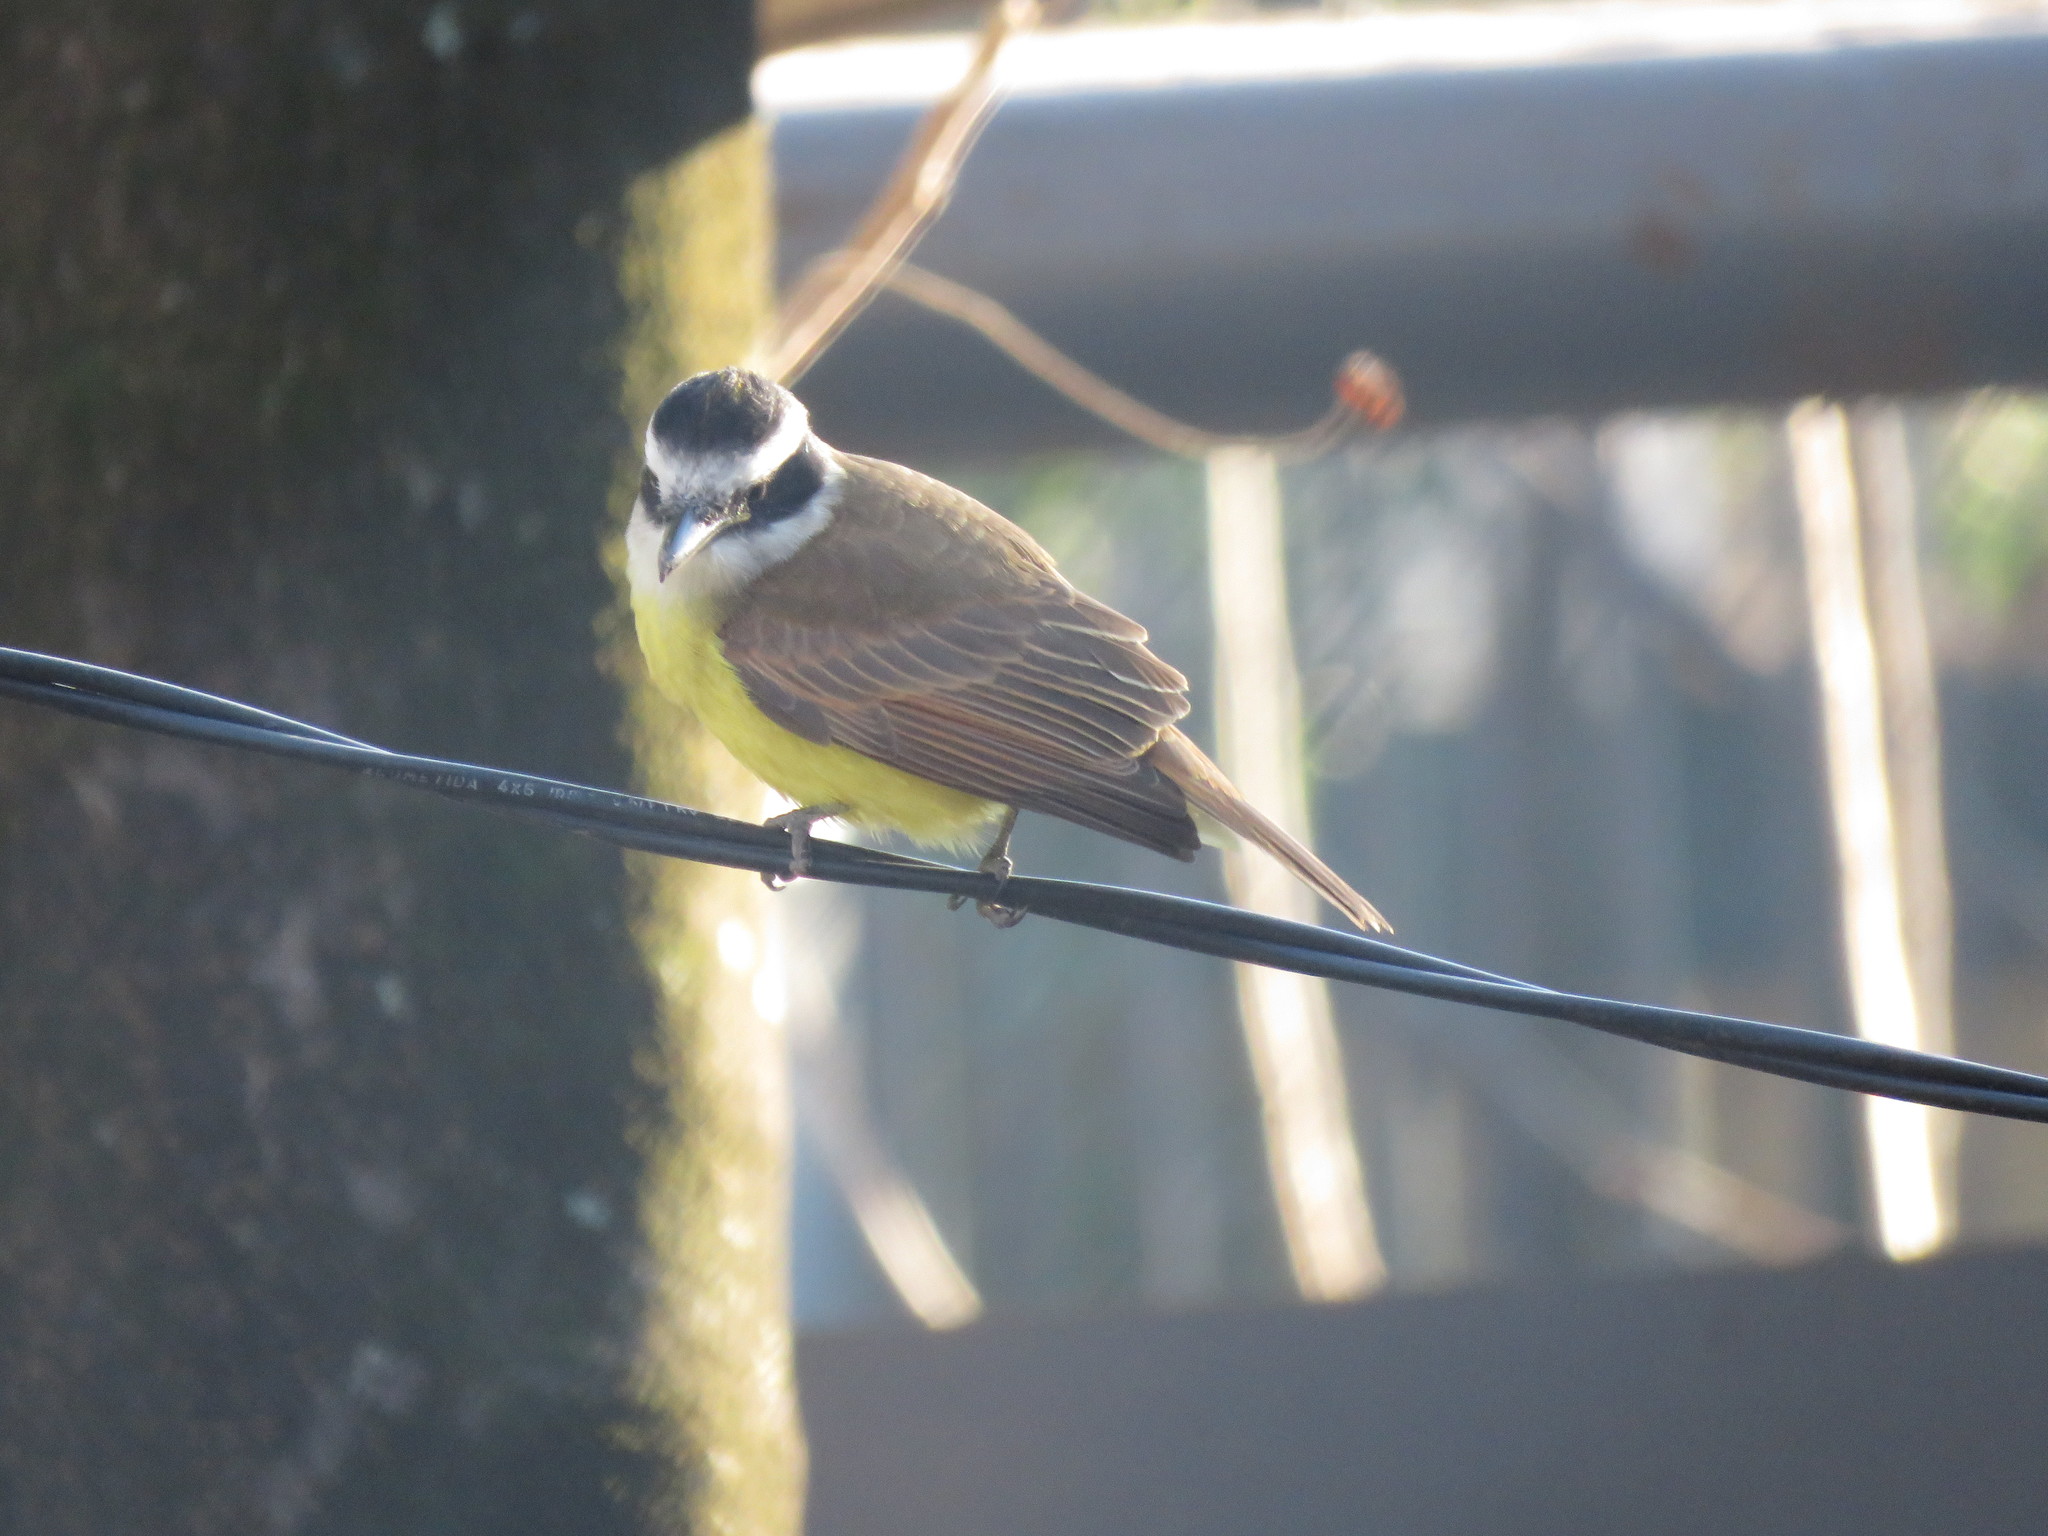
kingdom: Animalia
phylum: Chordata
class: Aves
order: Passeriformes
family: Tyrannidae
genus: Pitangus
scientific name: Pitangus sulphuratus
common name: Great kiskadee
